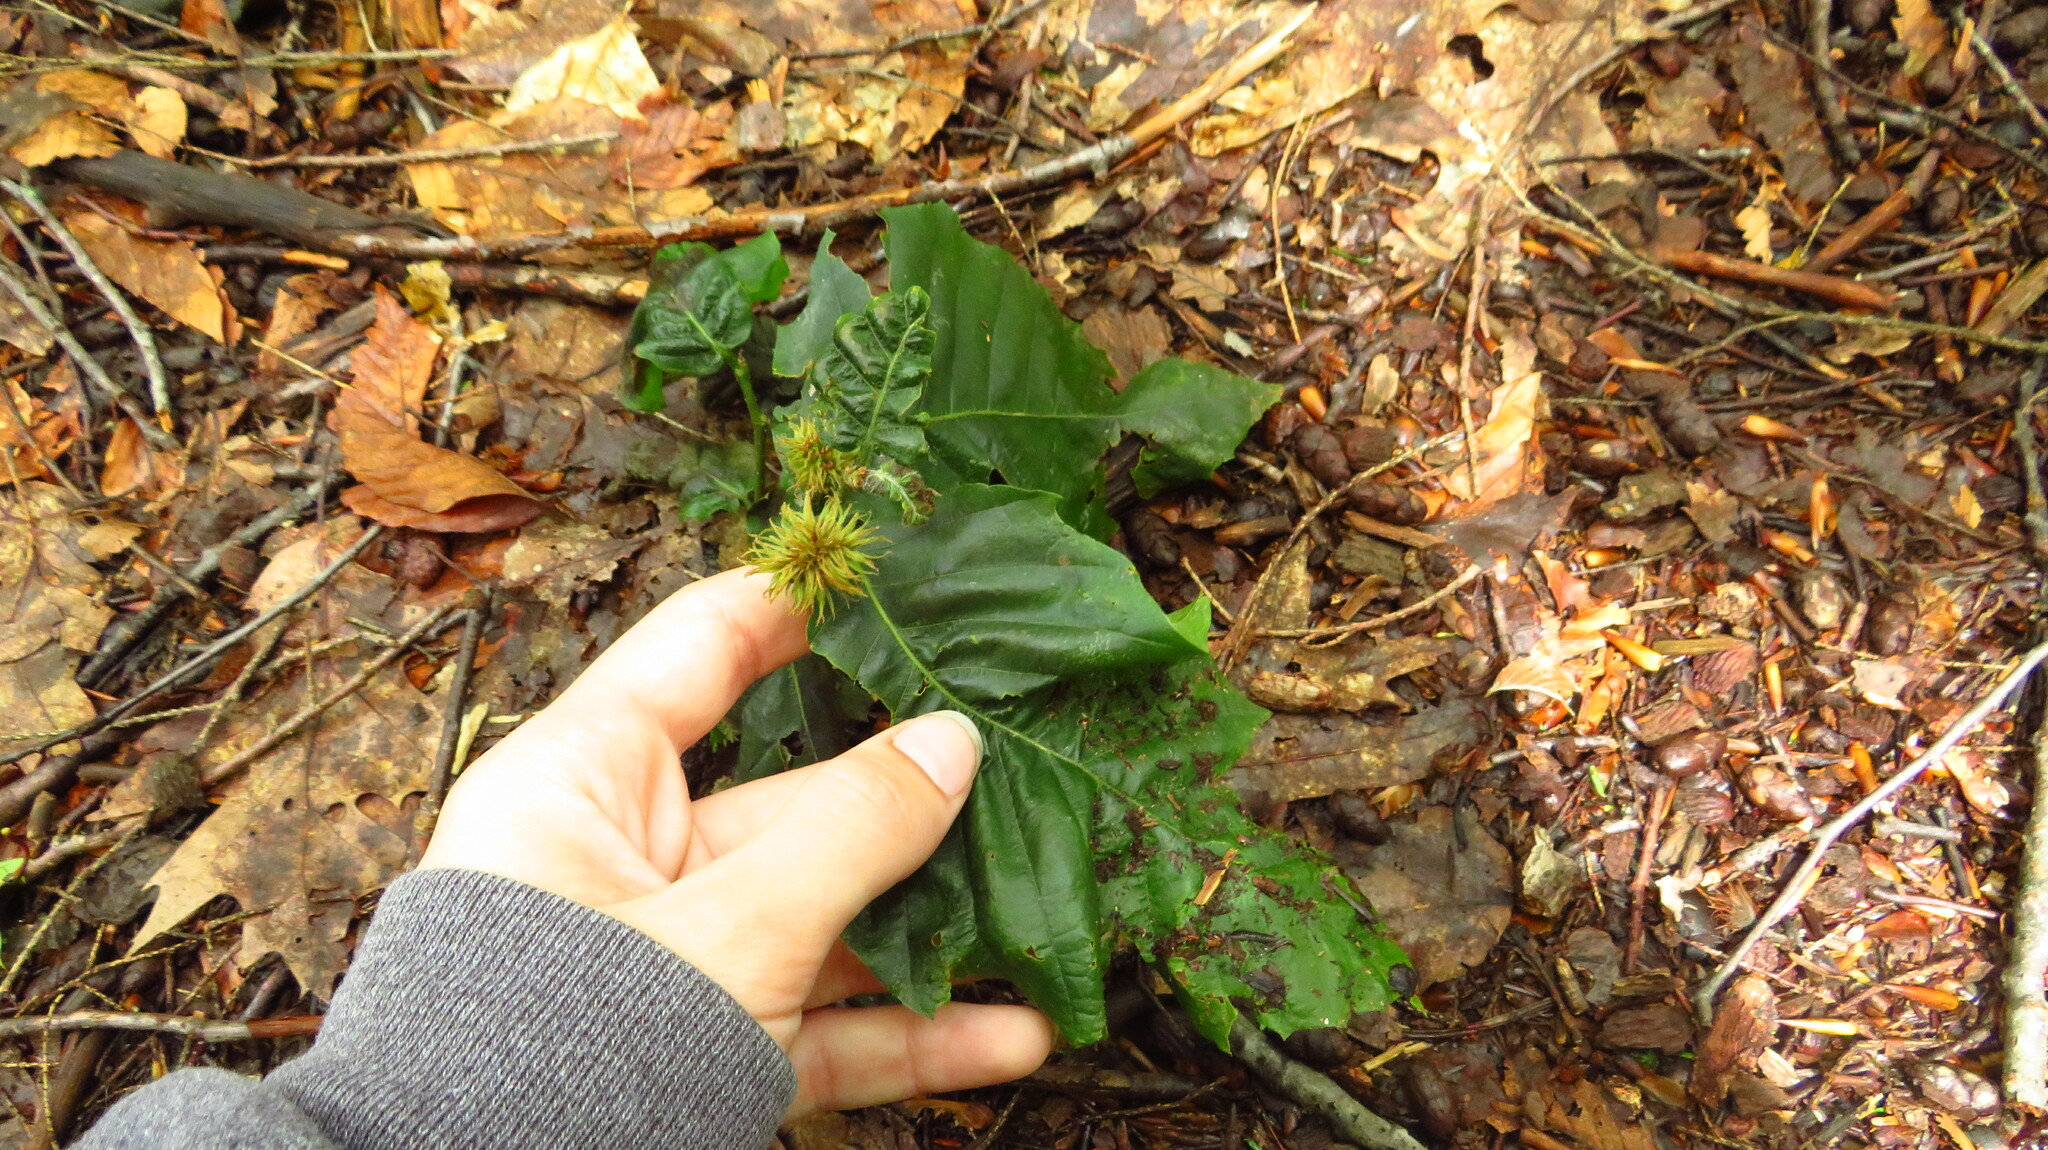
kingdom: Plantae
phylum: Tracheophyta
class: Magnoliopsida
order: Fagales
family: Fagaceae
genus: Fagus
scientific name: Fagus grandifolia
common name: American beech
